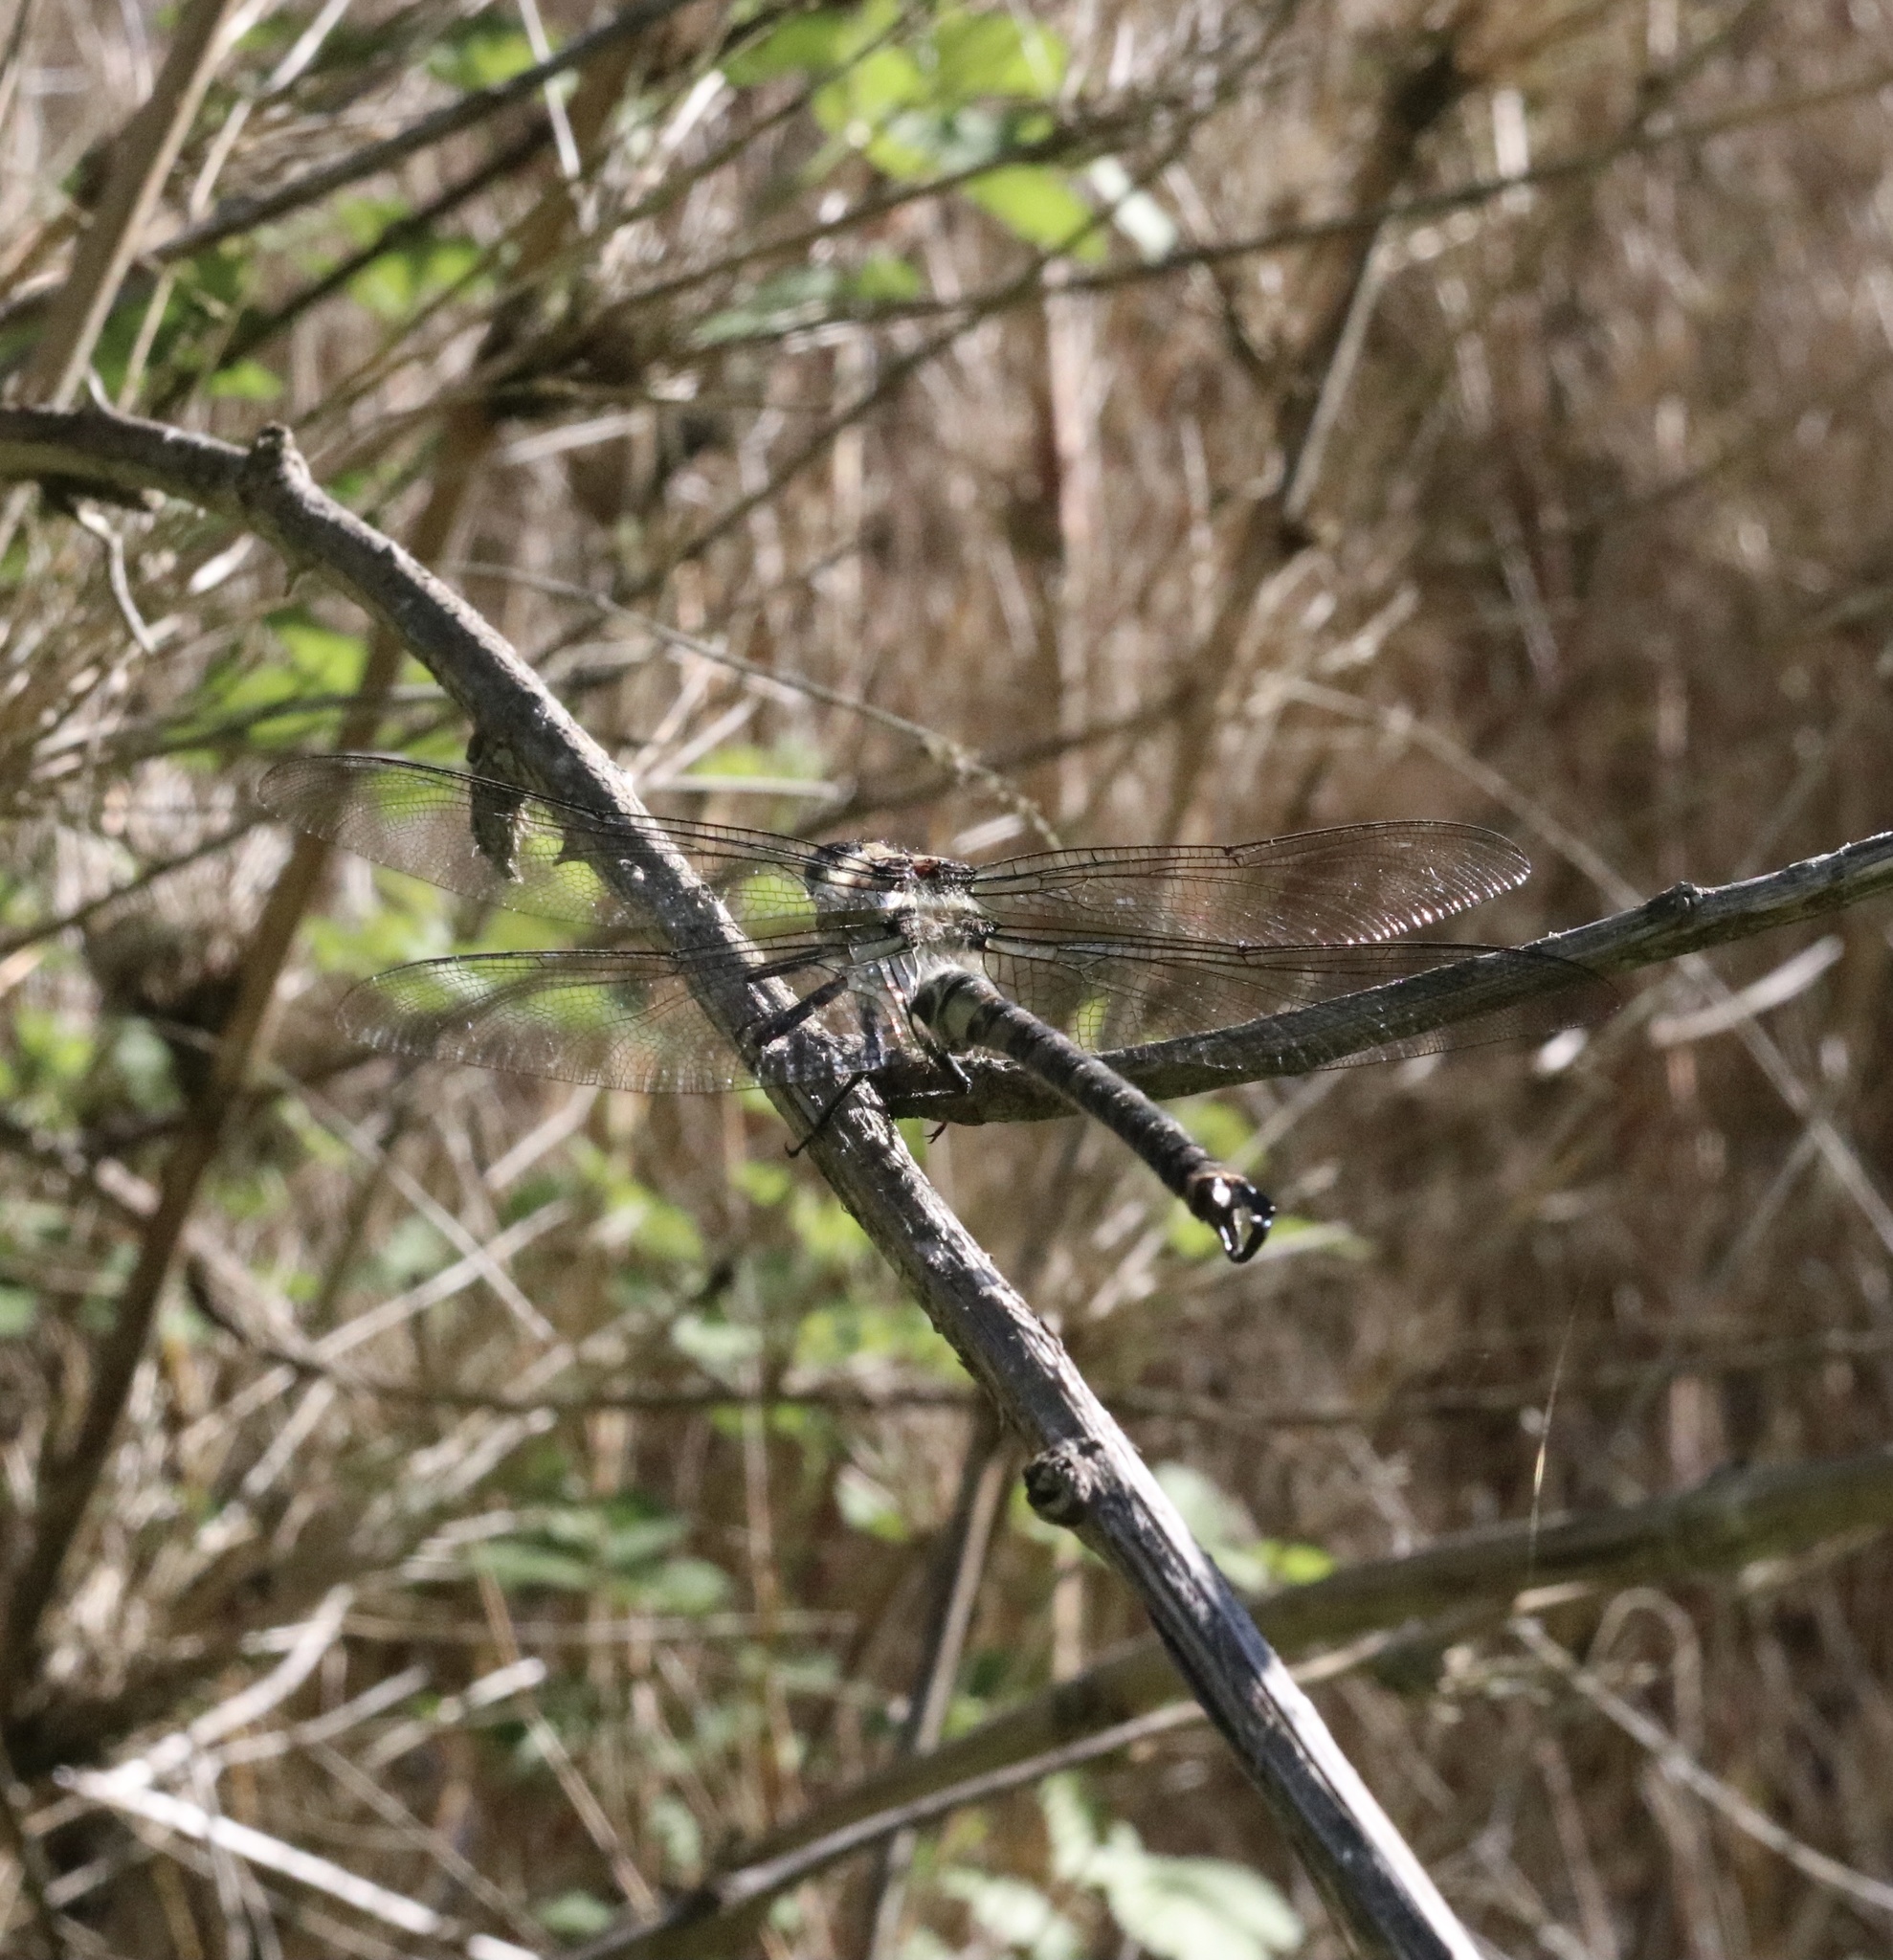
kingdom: Animalia
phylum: Arthropoda
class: Insecta
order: Odonata
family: Petaluridae
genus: Phenes
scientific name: Phenes raptor
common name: Chilean petaltail
